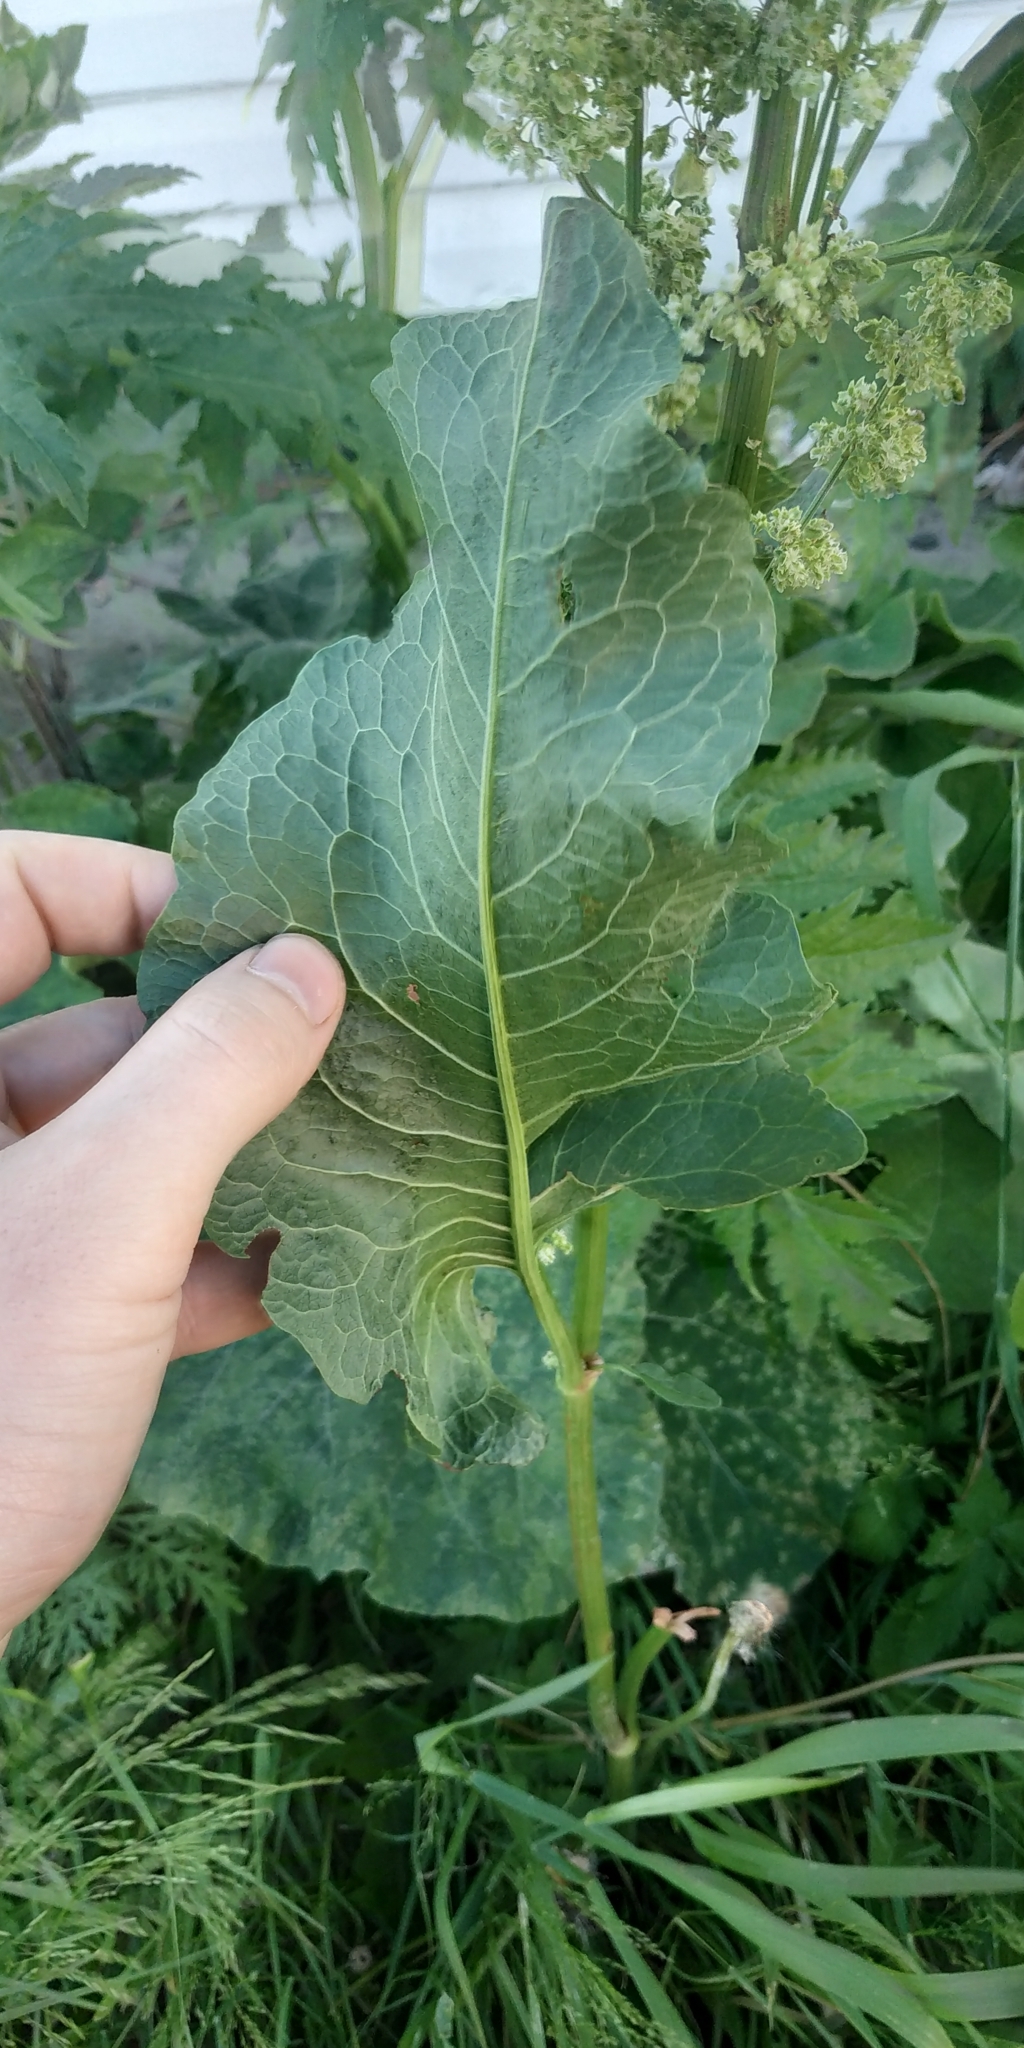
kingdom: Plantae
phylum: Tracheophyta
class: Magnoliopsida
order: Caryophyllales
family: Polygonaceae
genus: Rumex
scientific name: Rumex confertus
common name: Russian dock
